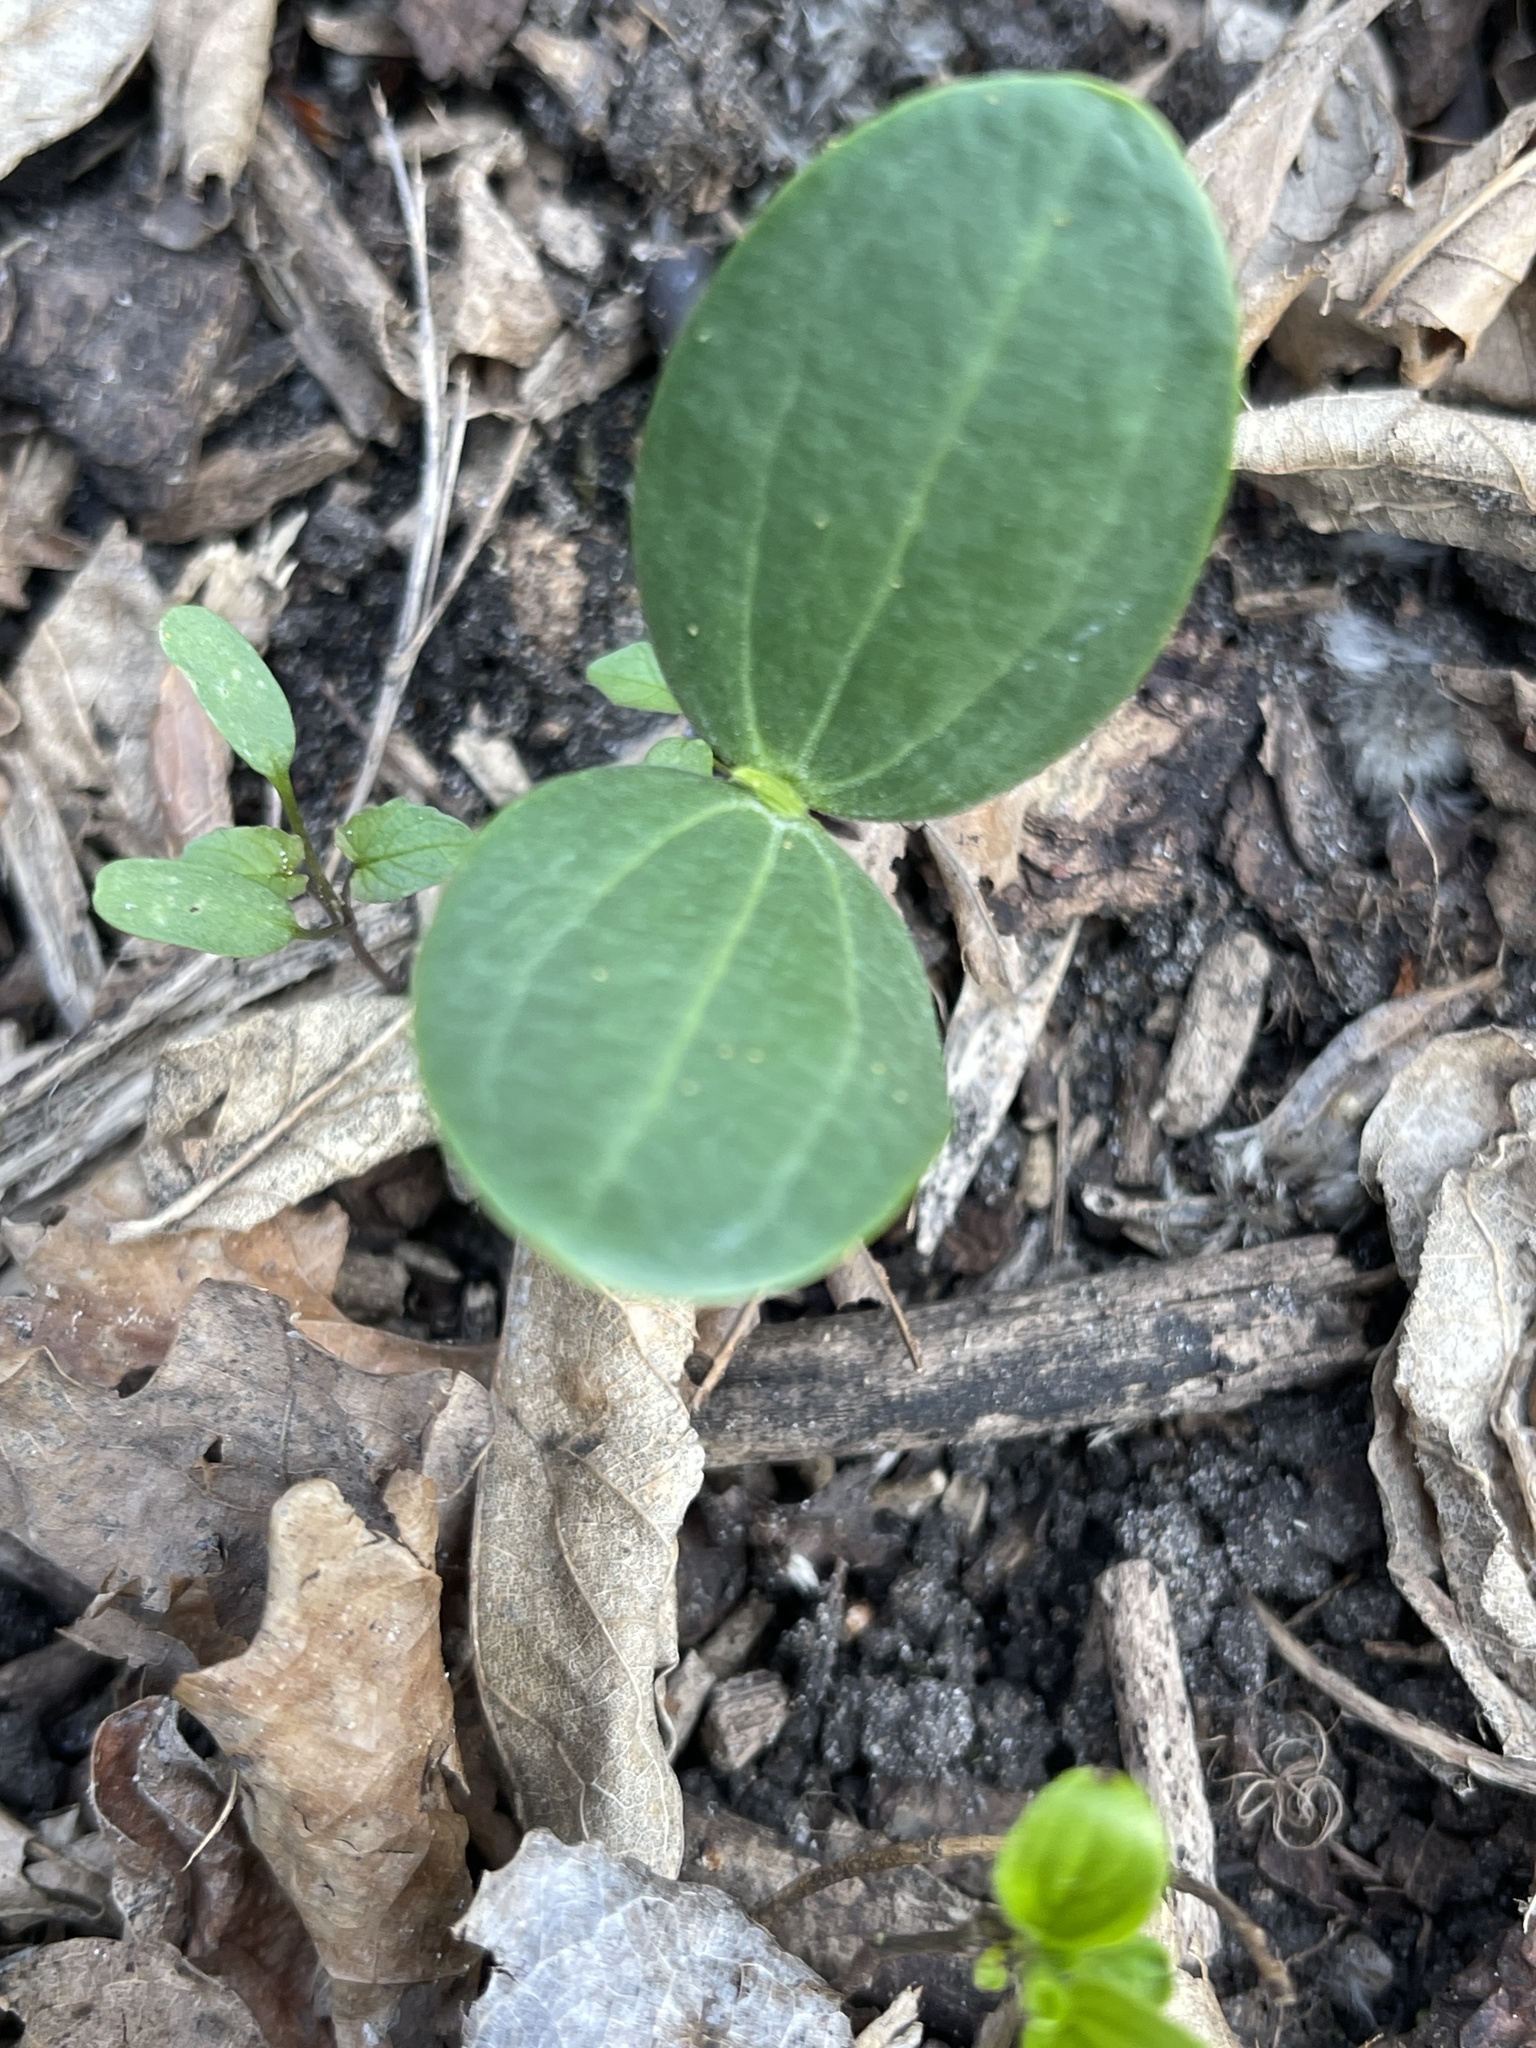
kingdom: Plantae
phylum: Tracheophyta
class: Magnoliopsida
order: Cucurbitales
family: Cucurbitaceae
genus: Echinocystis
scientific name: Echinocystis lobata
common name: Wild cucumber
